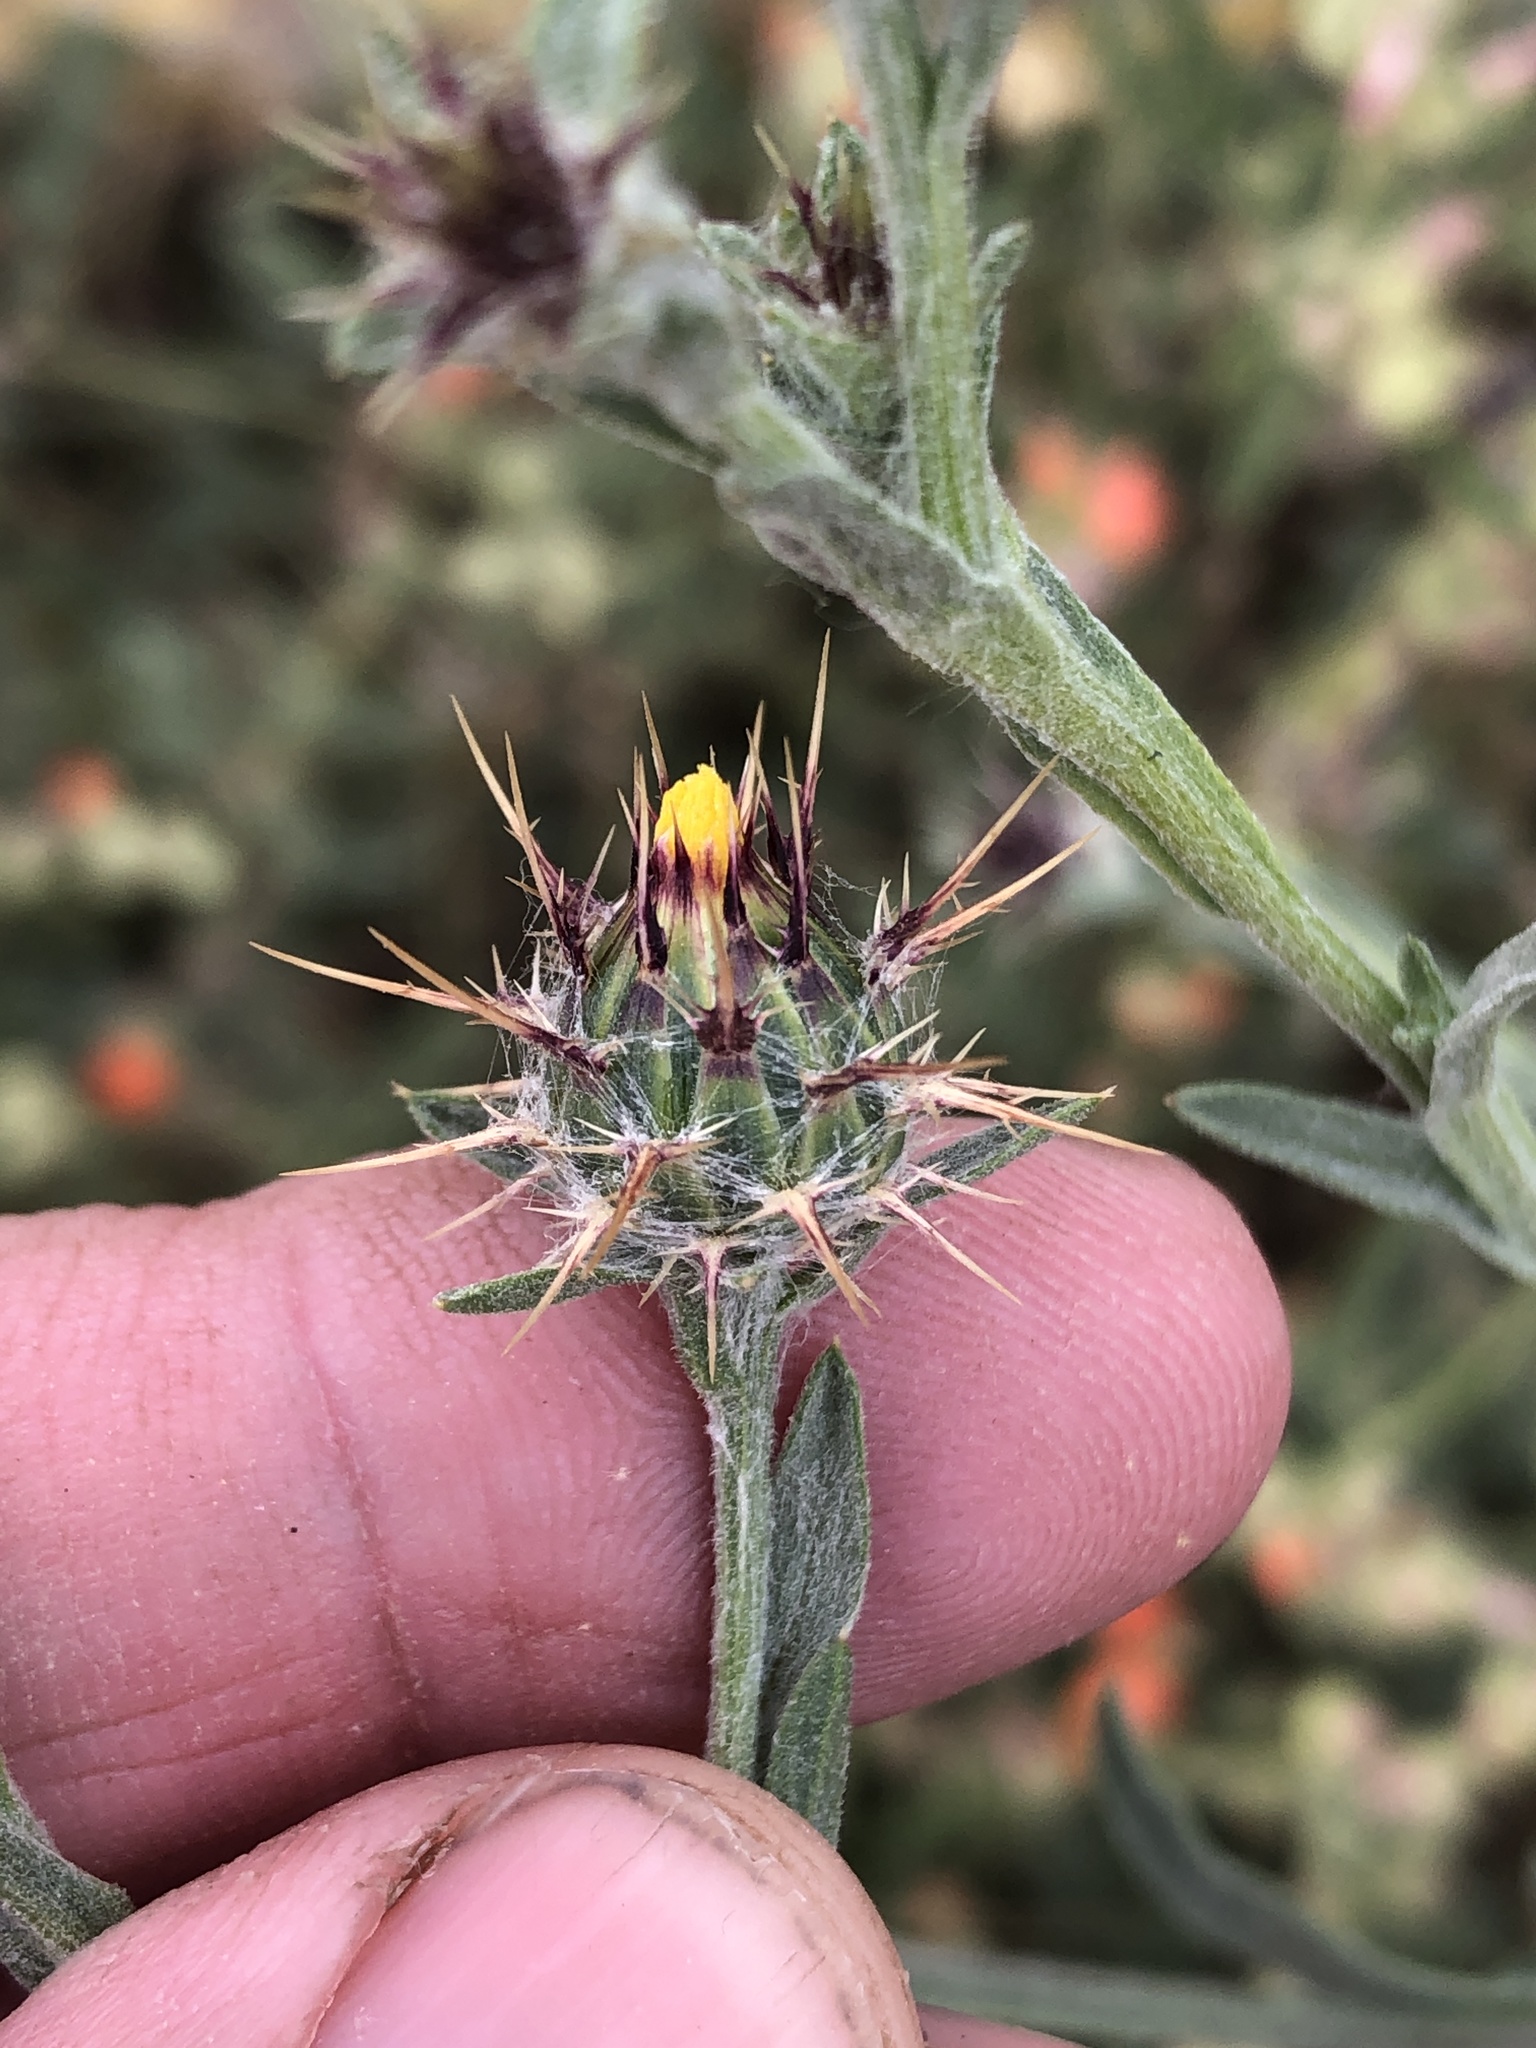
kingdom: Plantae
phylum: Tracheophyta
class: Magnoliopsida
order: Asterales
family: Asteraceae
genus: Centaurea
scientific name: Centaurea melitensis
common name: Maltese star-thistle
